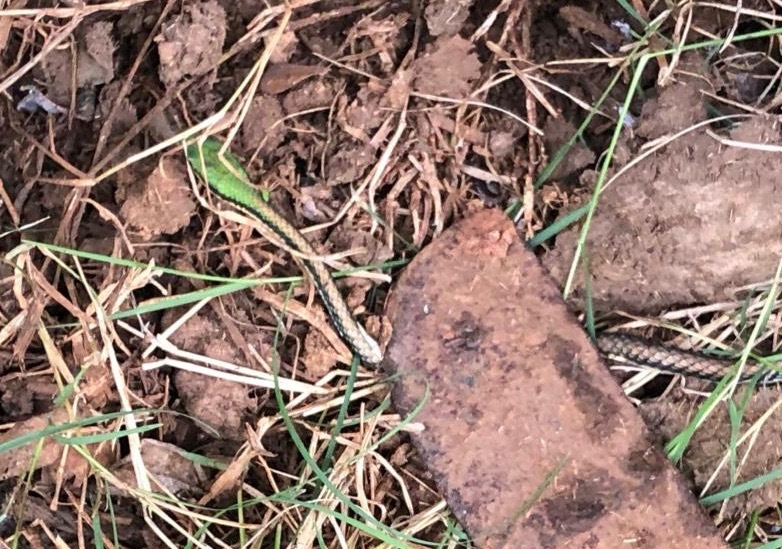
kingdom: Animalia
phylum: Chordata
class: Squamata
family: Colubridae
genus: Leptophis
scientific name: Leptophis mexicanus
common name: Mexican parrot snake
